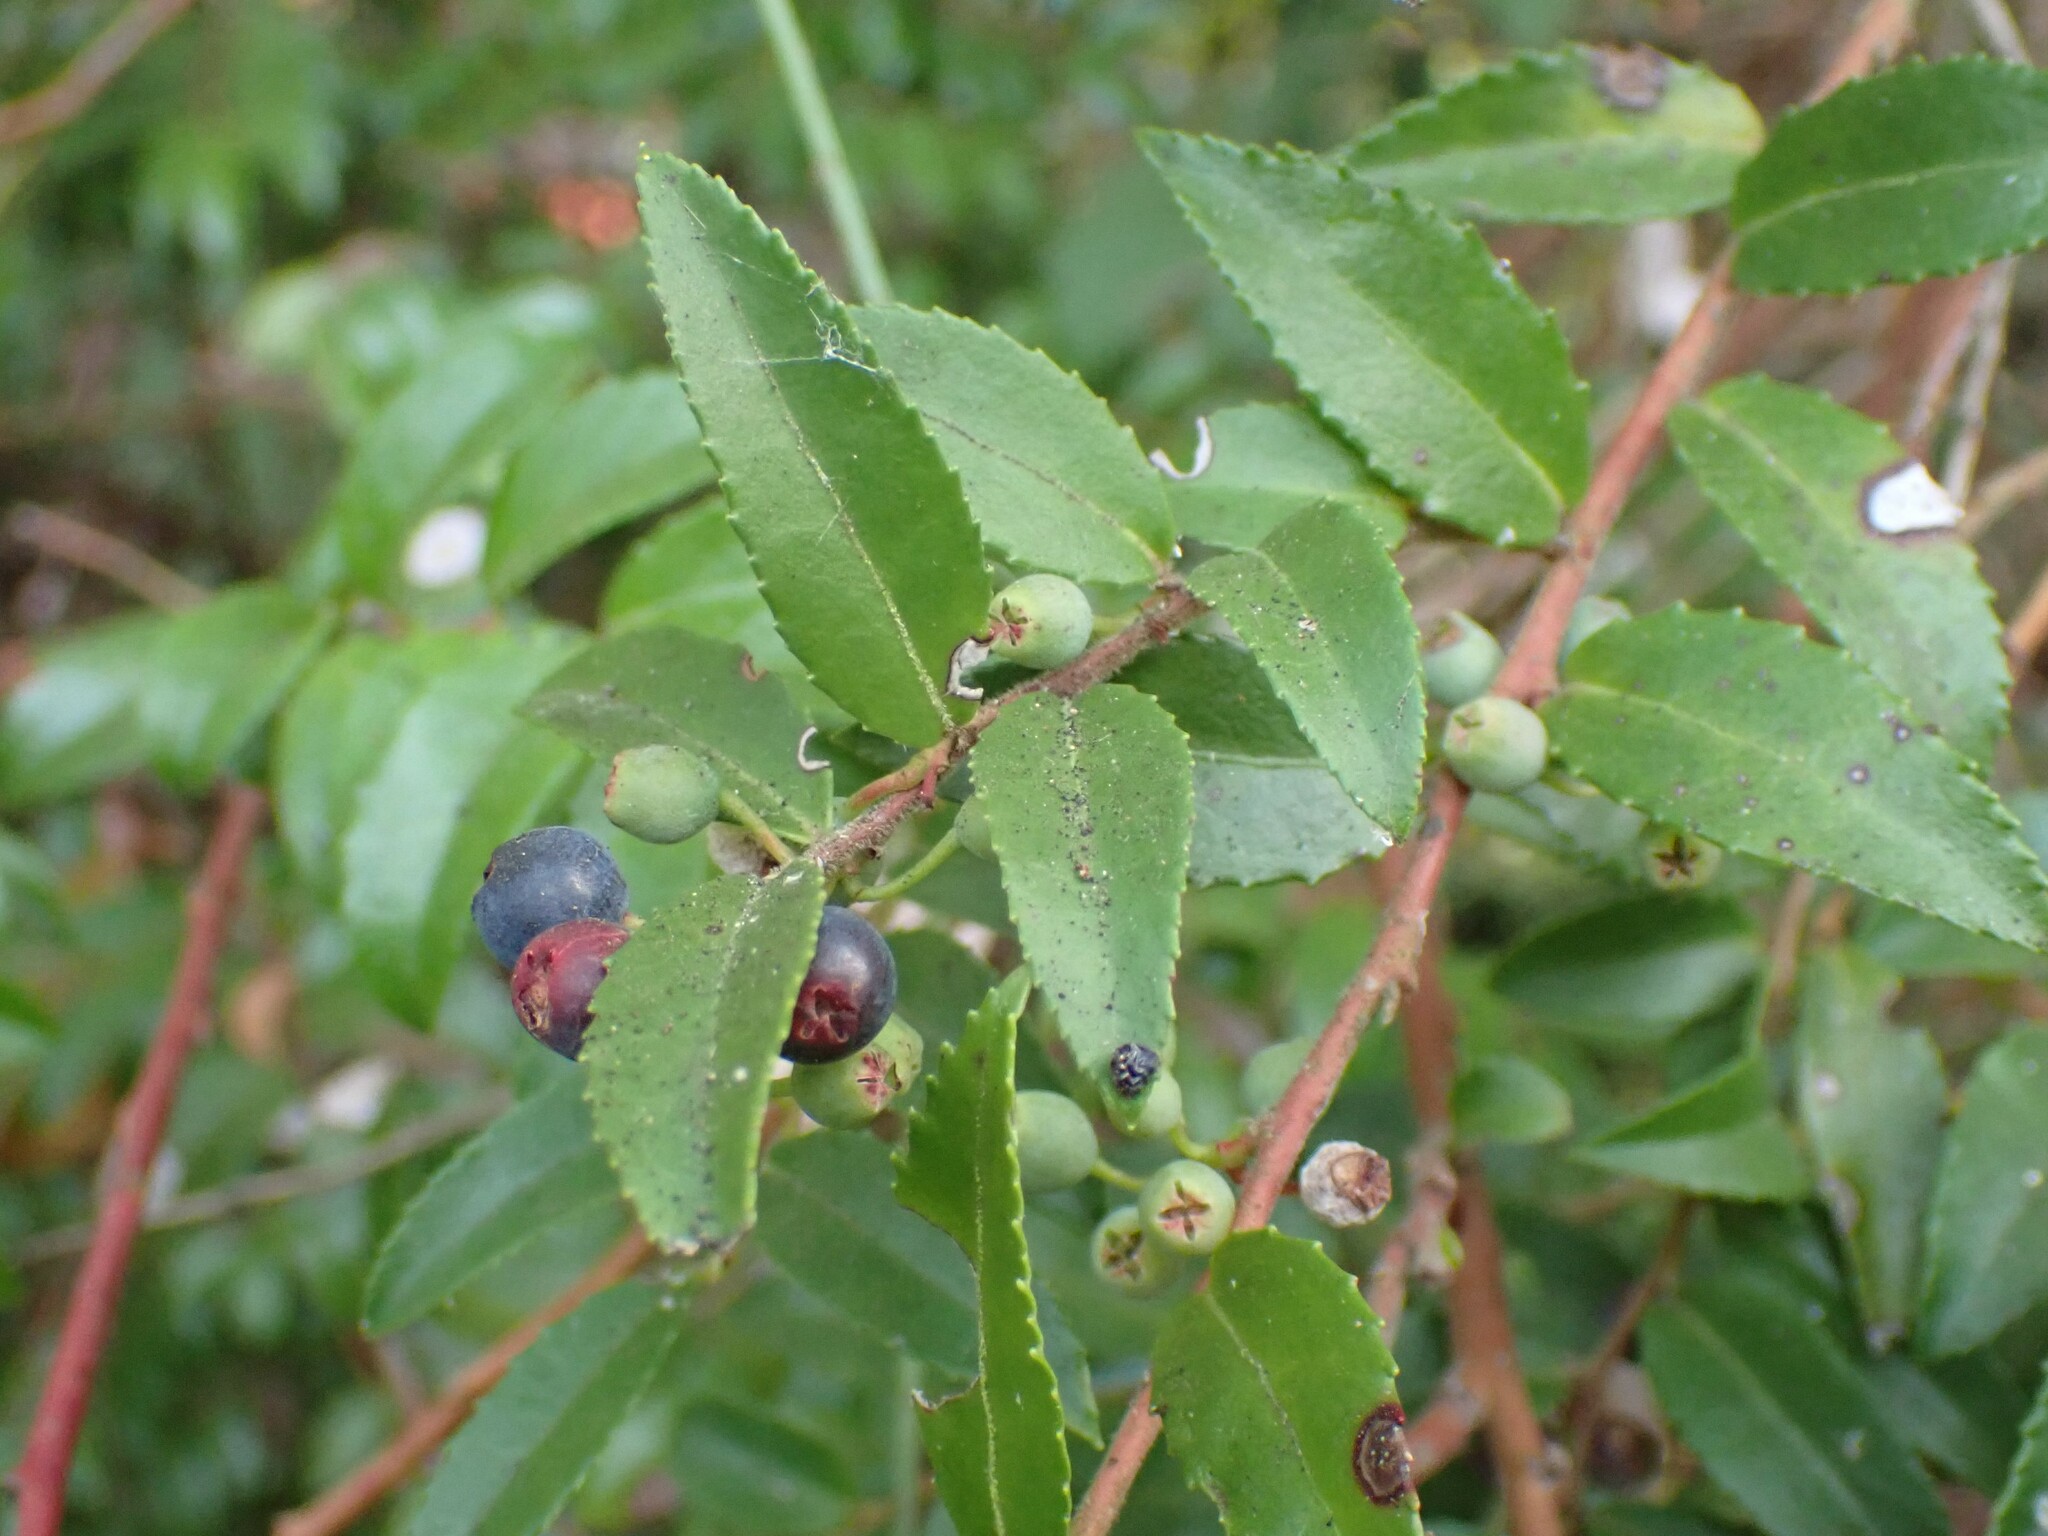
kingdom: Plantae
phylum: Tracheophyta
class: Magnoliopsida
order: Ericales
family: Ericaceae
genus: Vaccinium
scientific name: Vaccinium ovatum
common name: California-huckleberry
